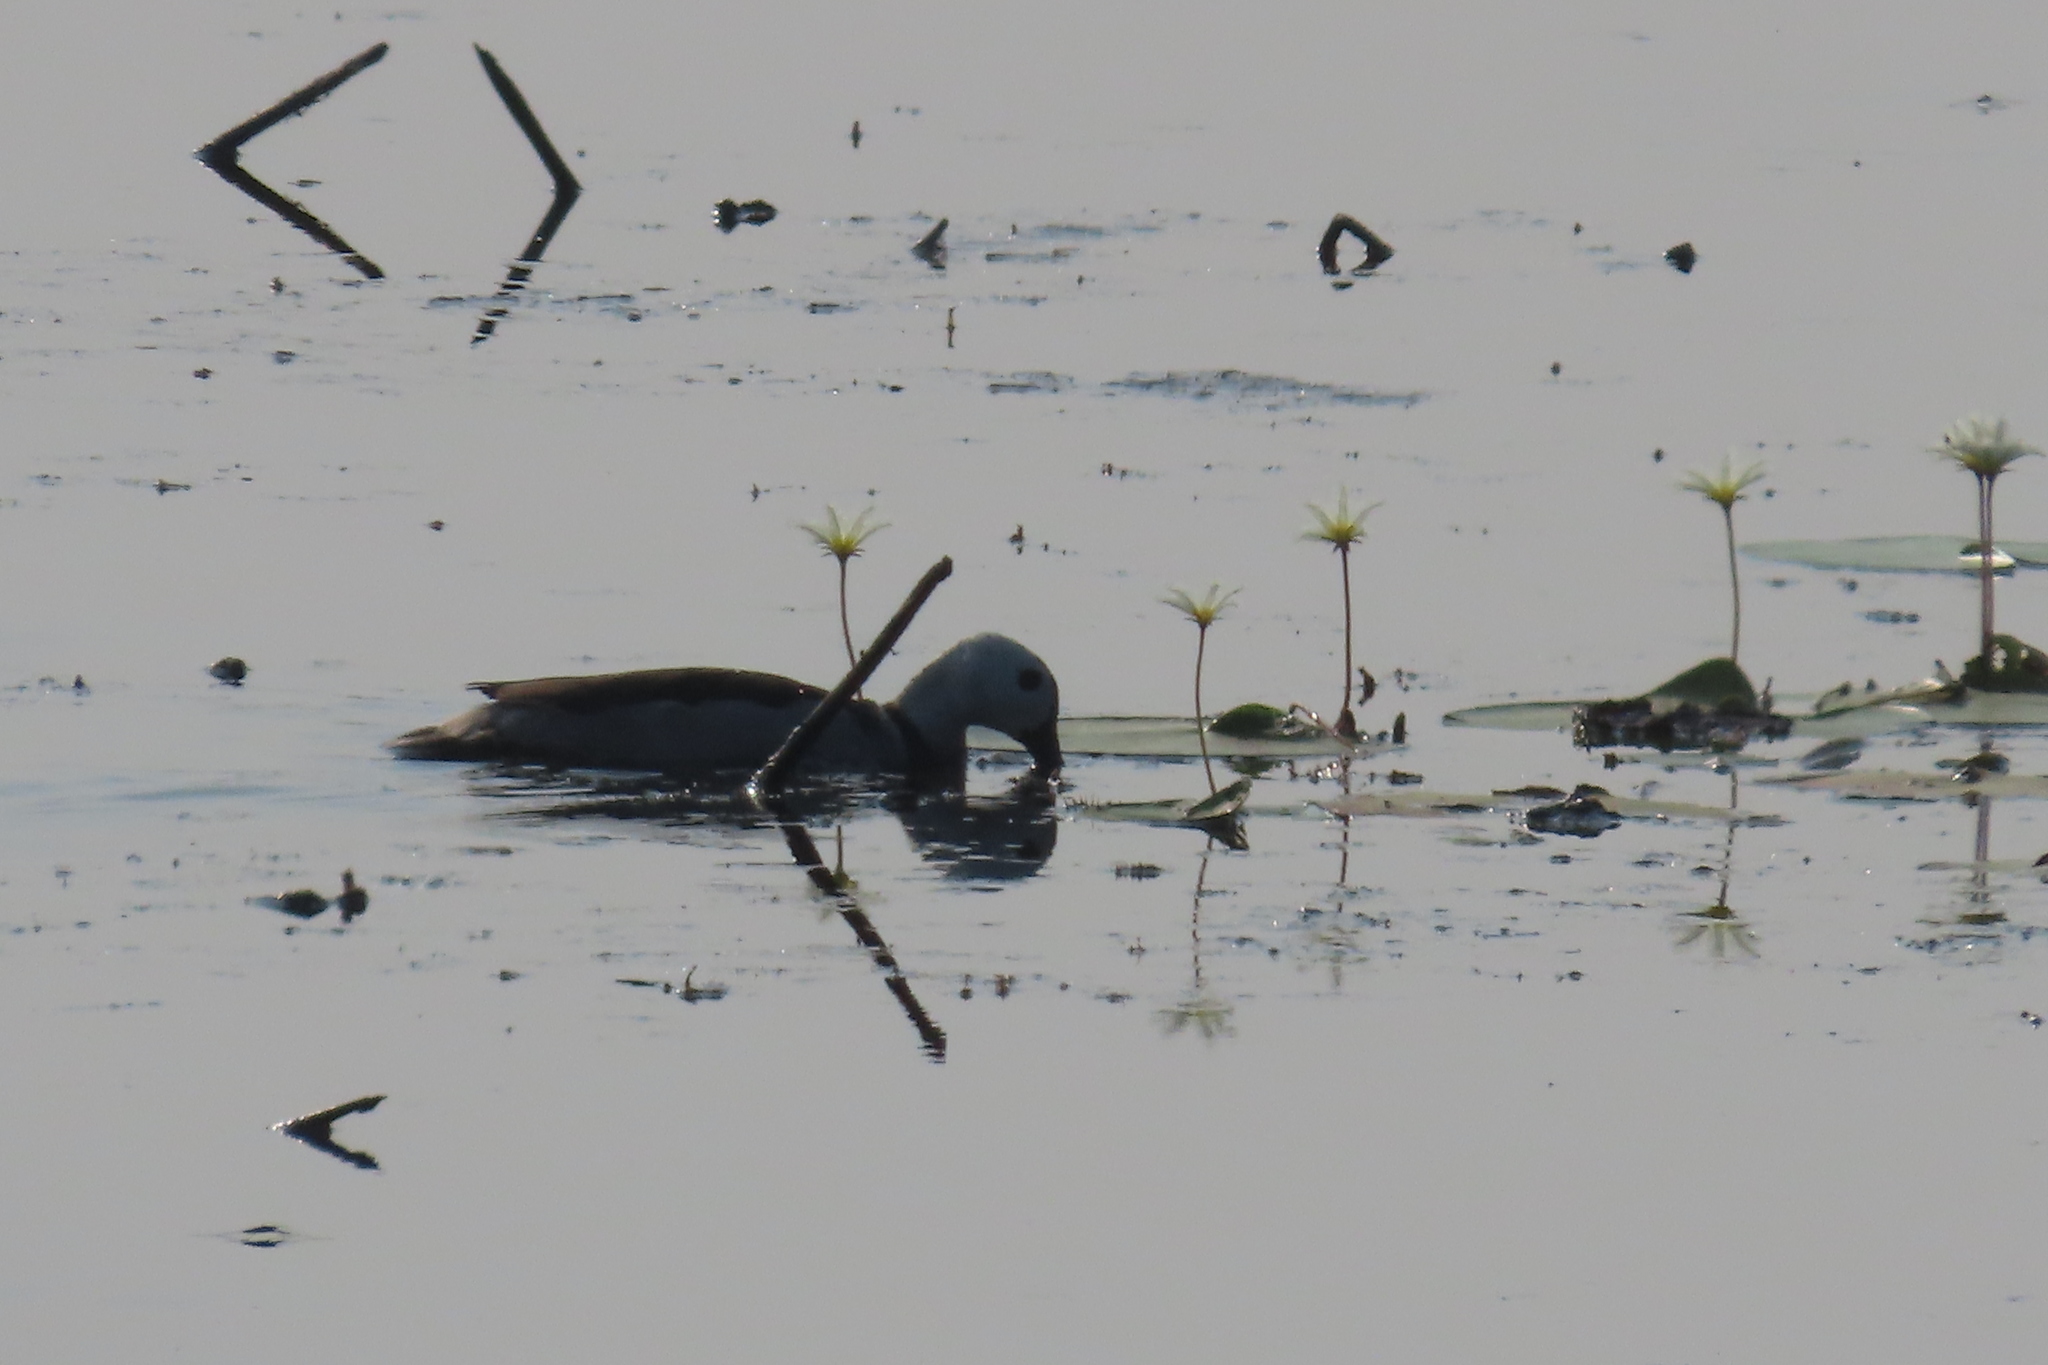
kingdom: Animalia
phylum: Chordata
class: Aves
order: Anseriformes
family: Anatidae
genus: Nettapus
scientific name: Nettapus coromandelianus
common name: Cotton pygmy-goose
